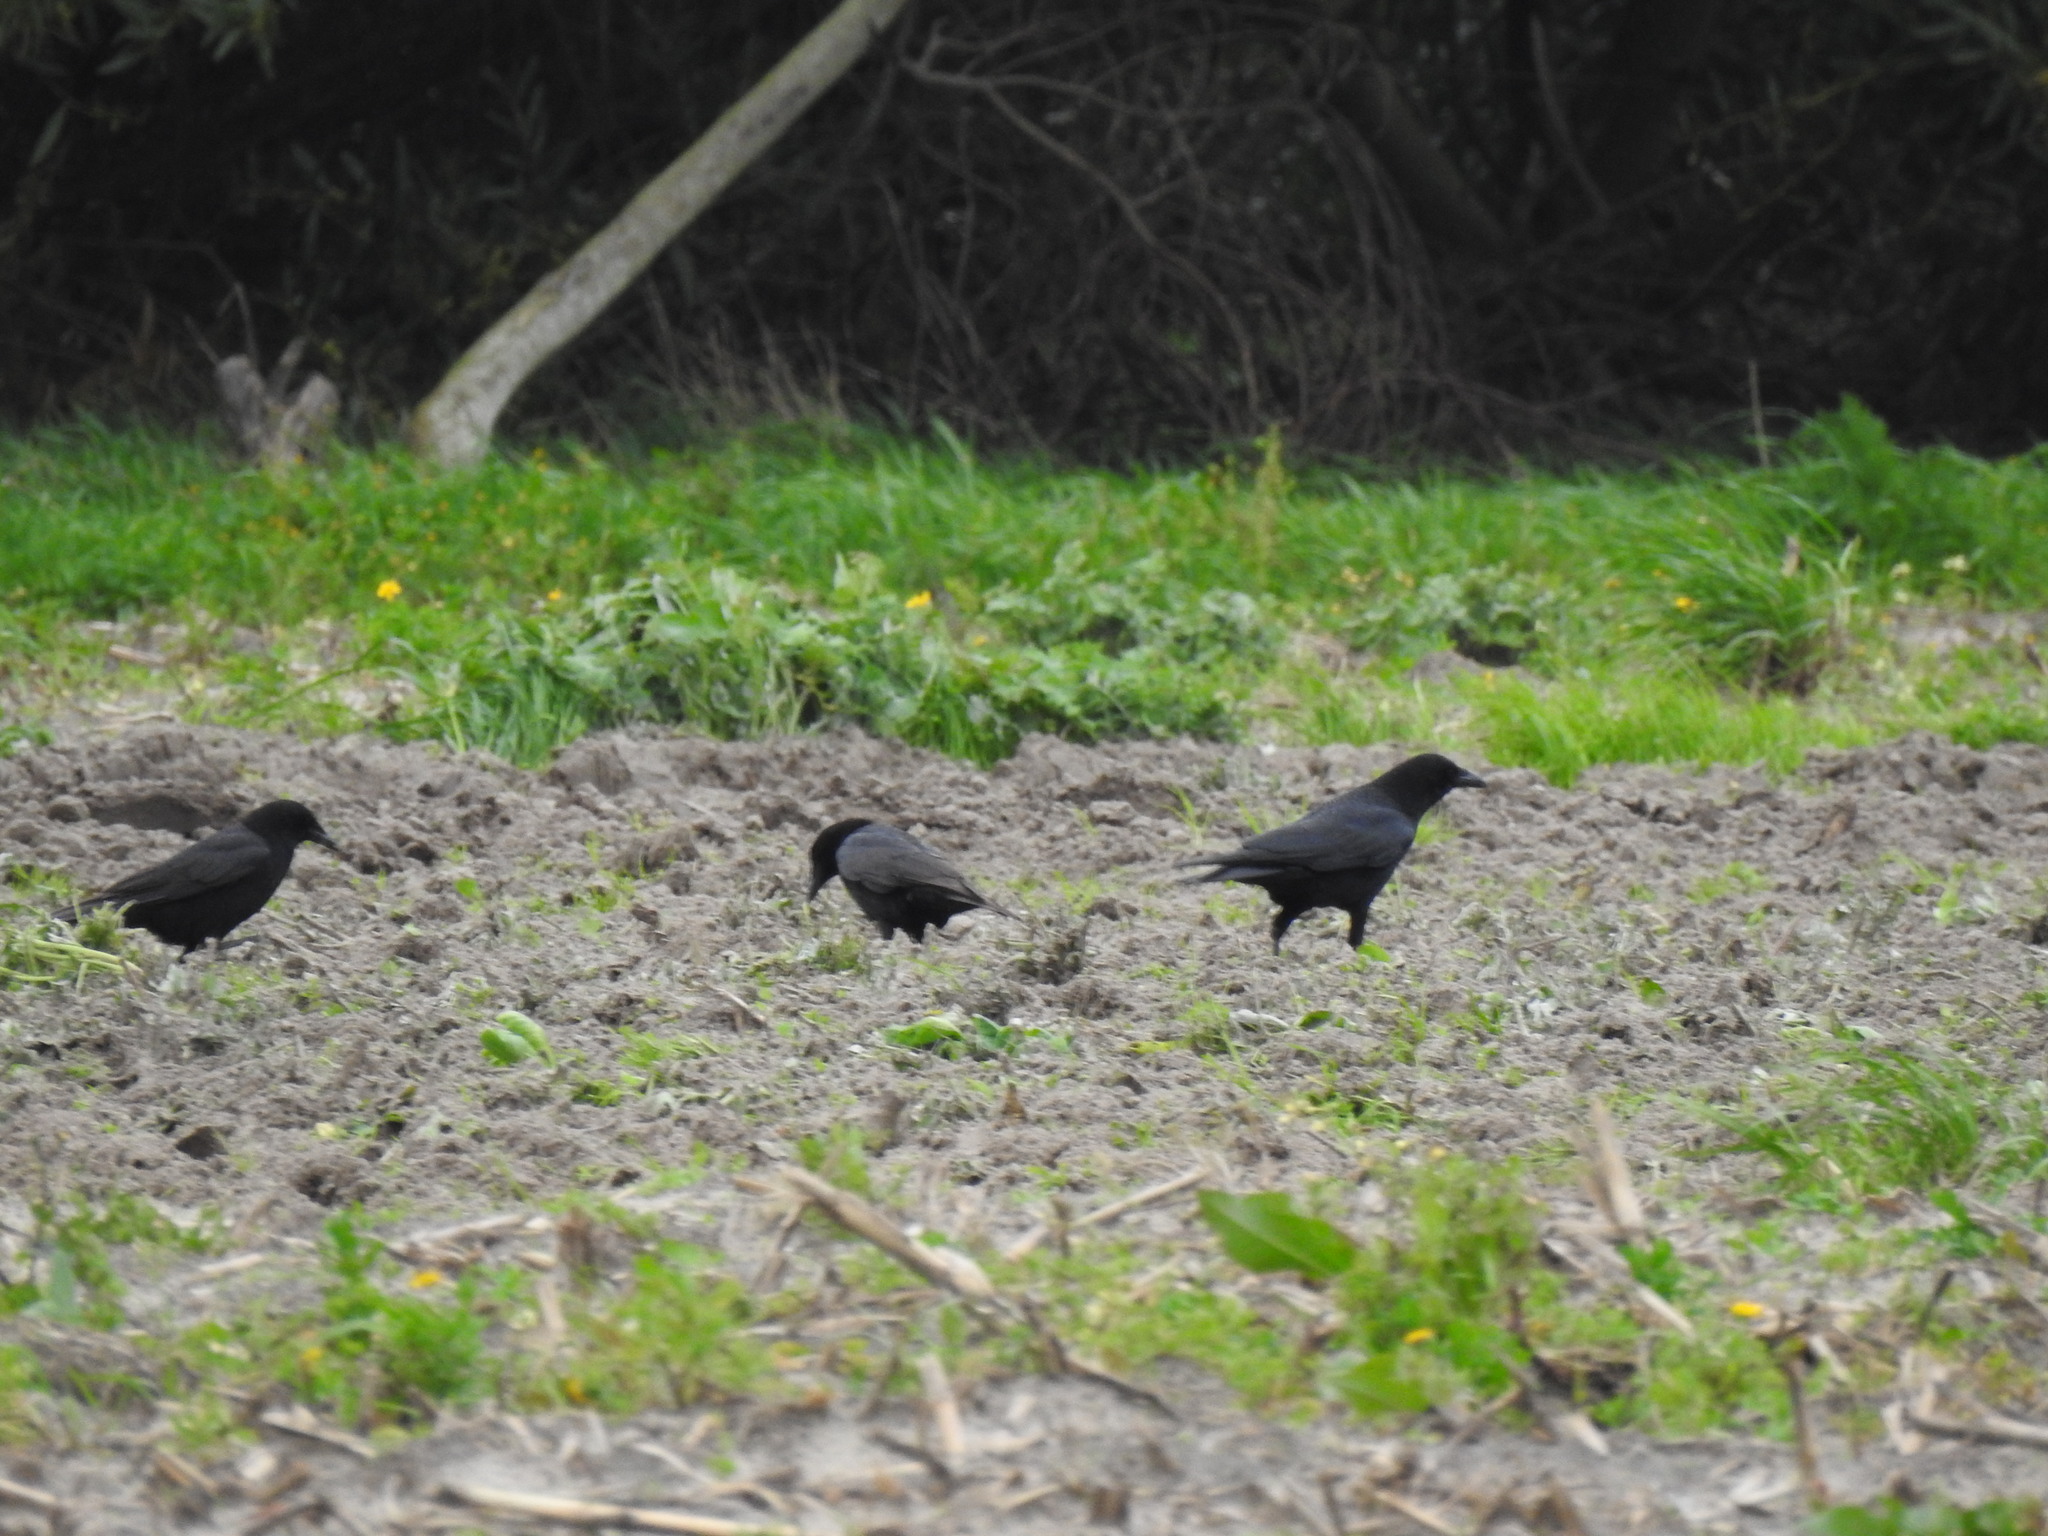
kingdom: Animalia
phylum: Chordata
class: Aves
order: Passeriformes
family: Corvidae
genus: Corvus
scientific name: Corvus corone
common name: Carrion crow
